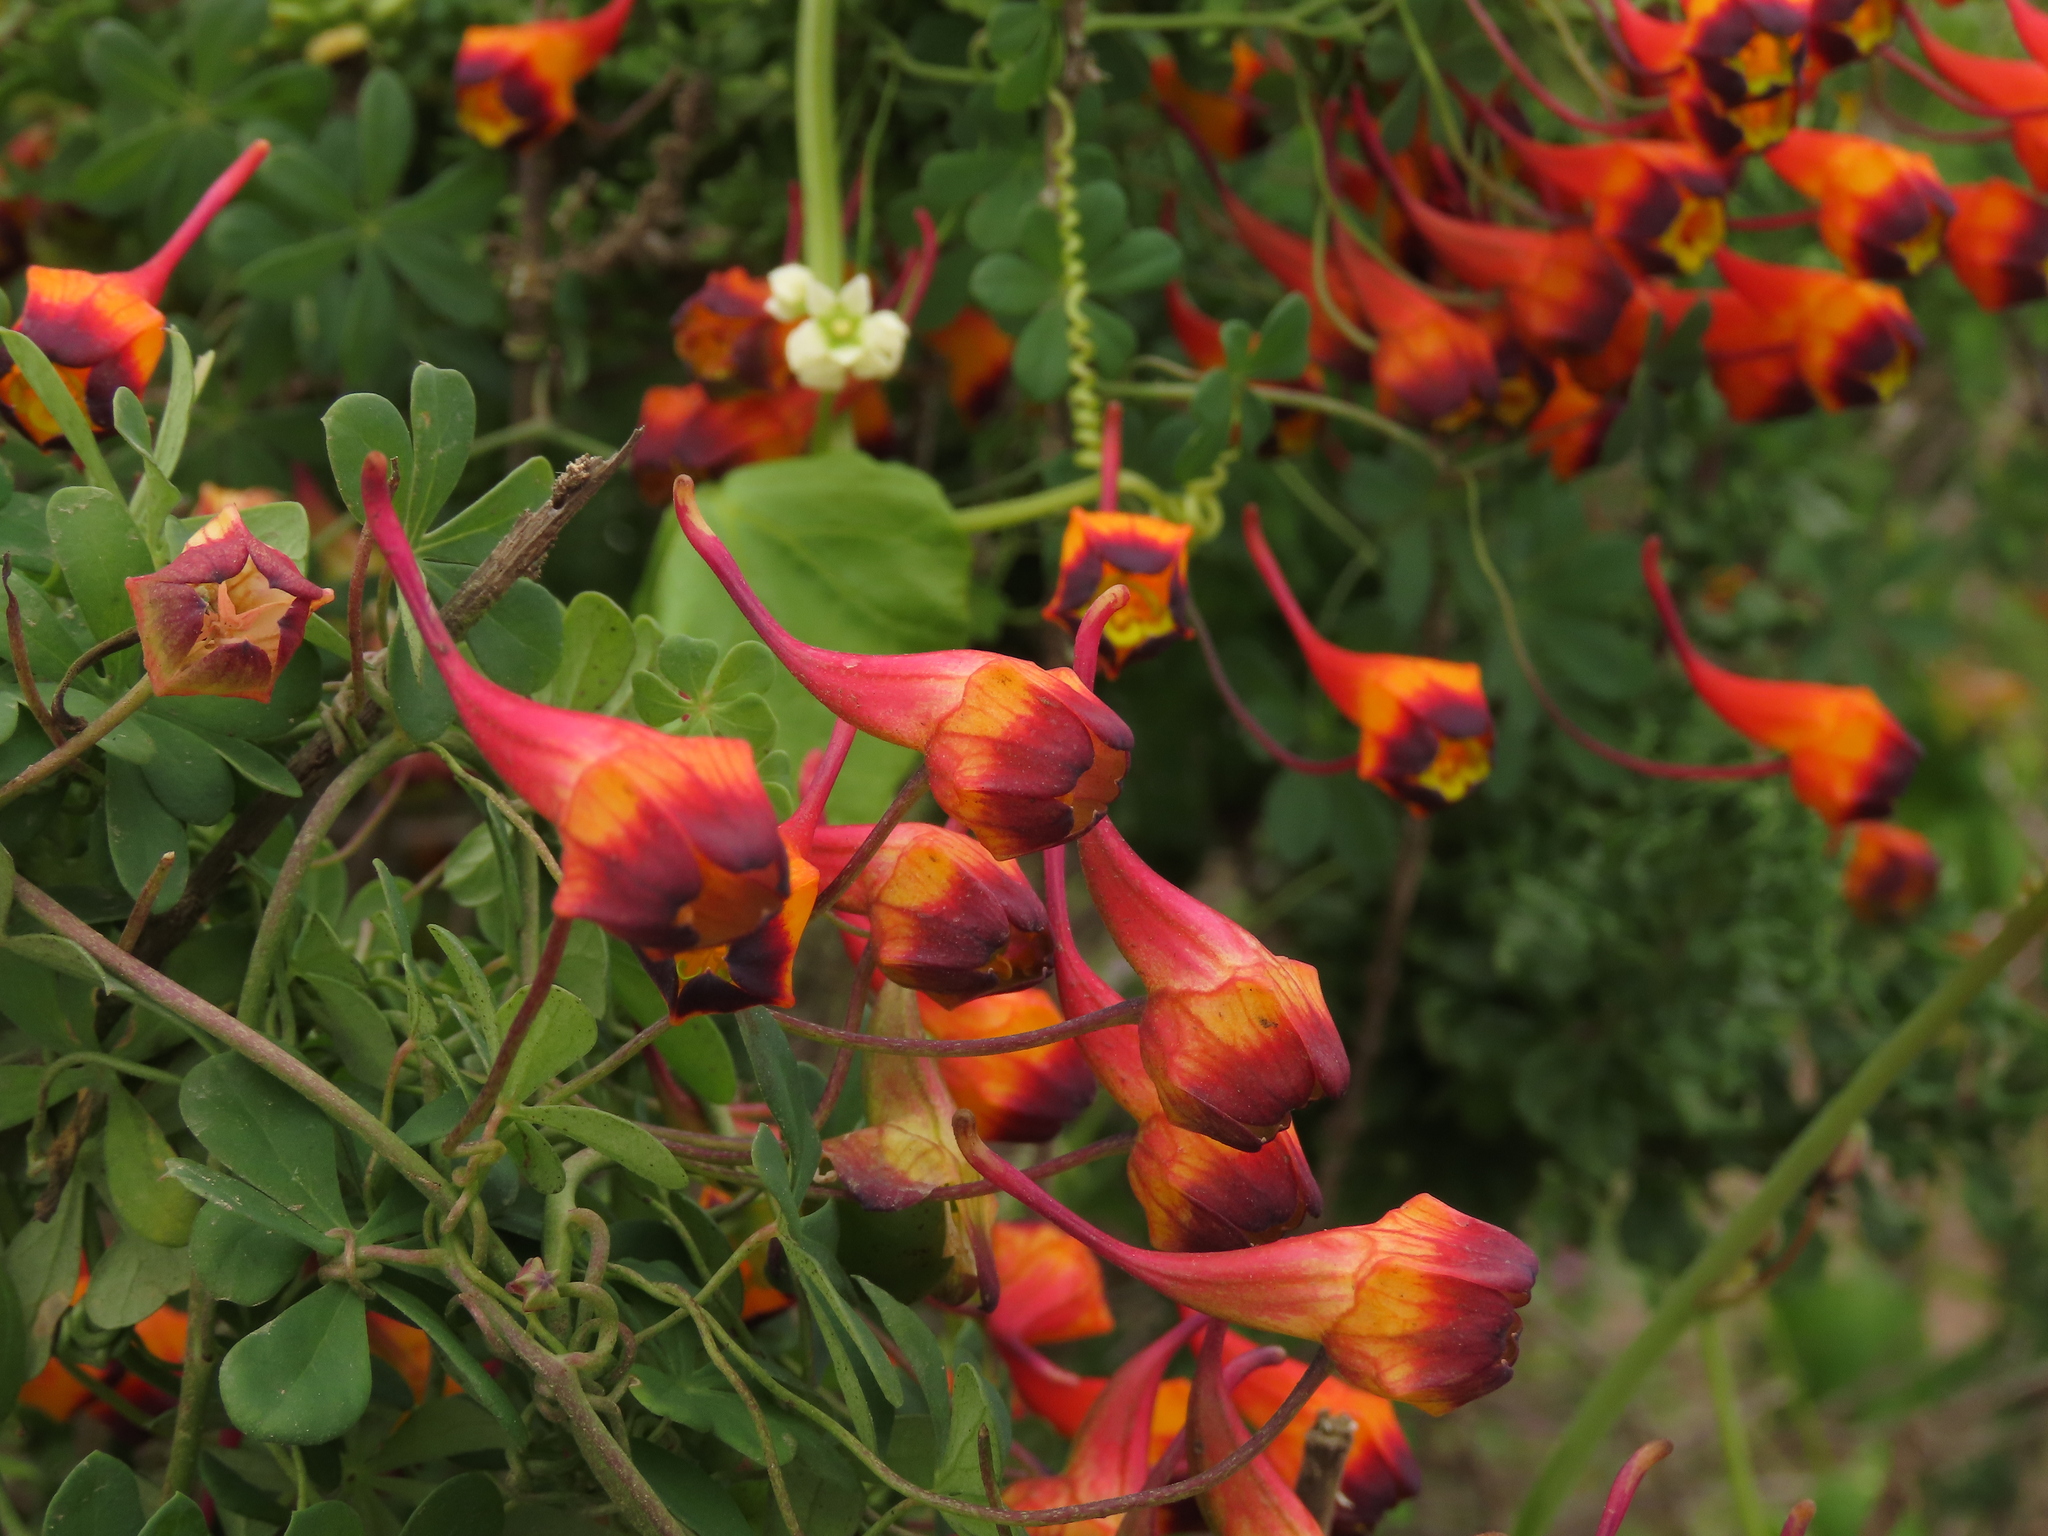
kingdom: Plantae
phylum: Tracheophyta
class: Magnoliopsida
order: Brassicales
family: Tropaeolaceae
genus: Tropaeolum
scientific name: Tropaeolum tricolor
